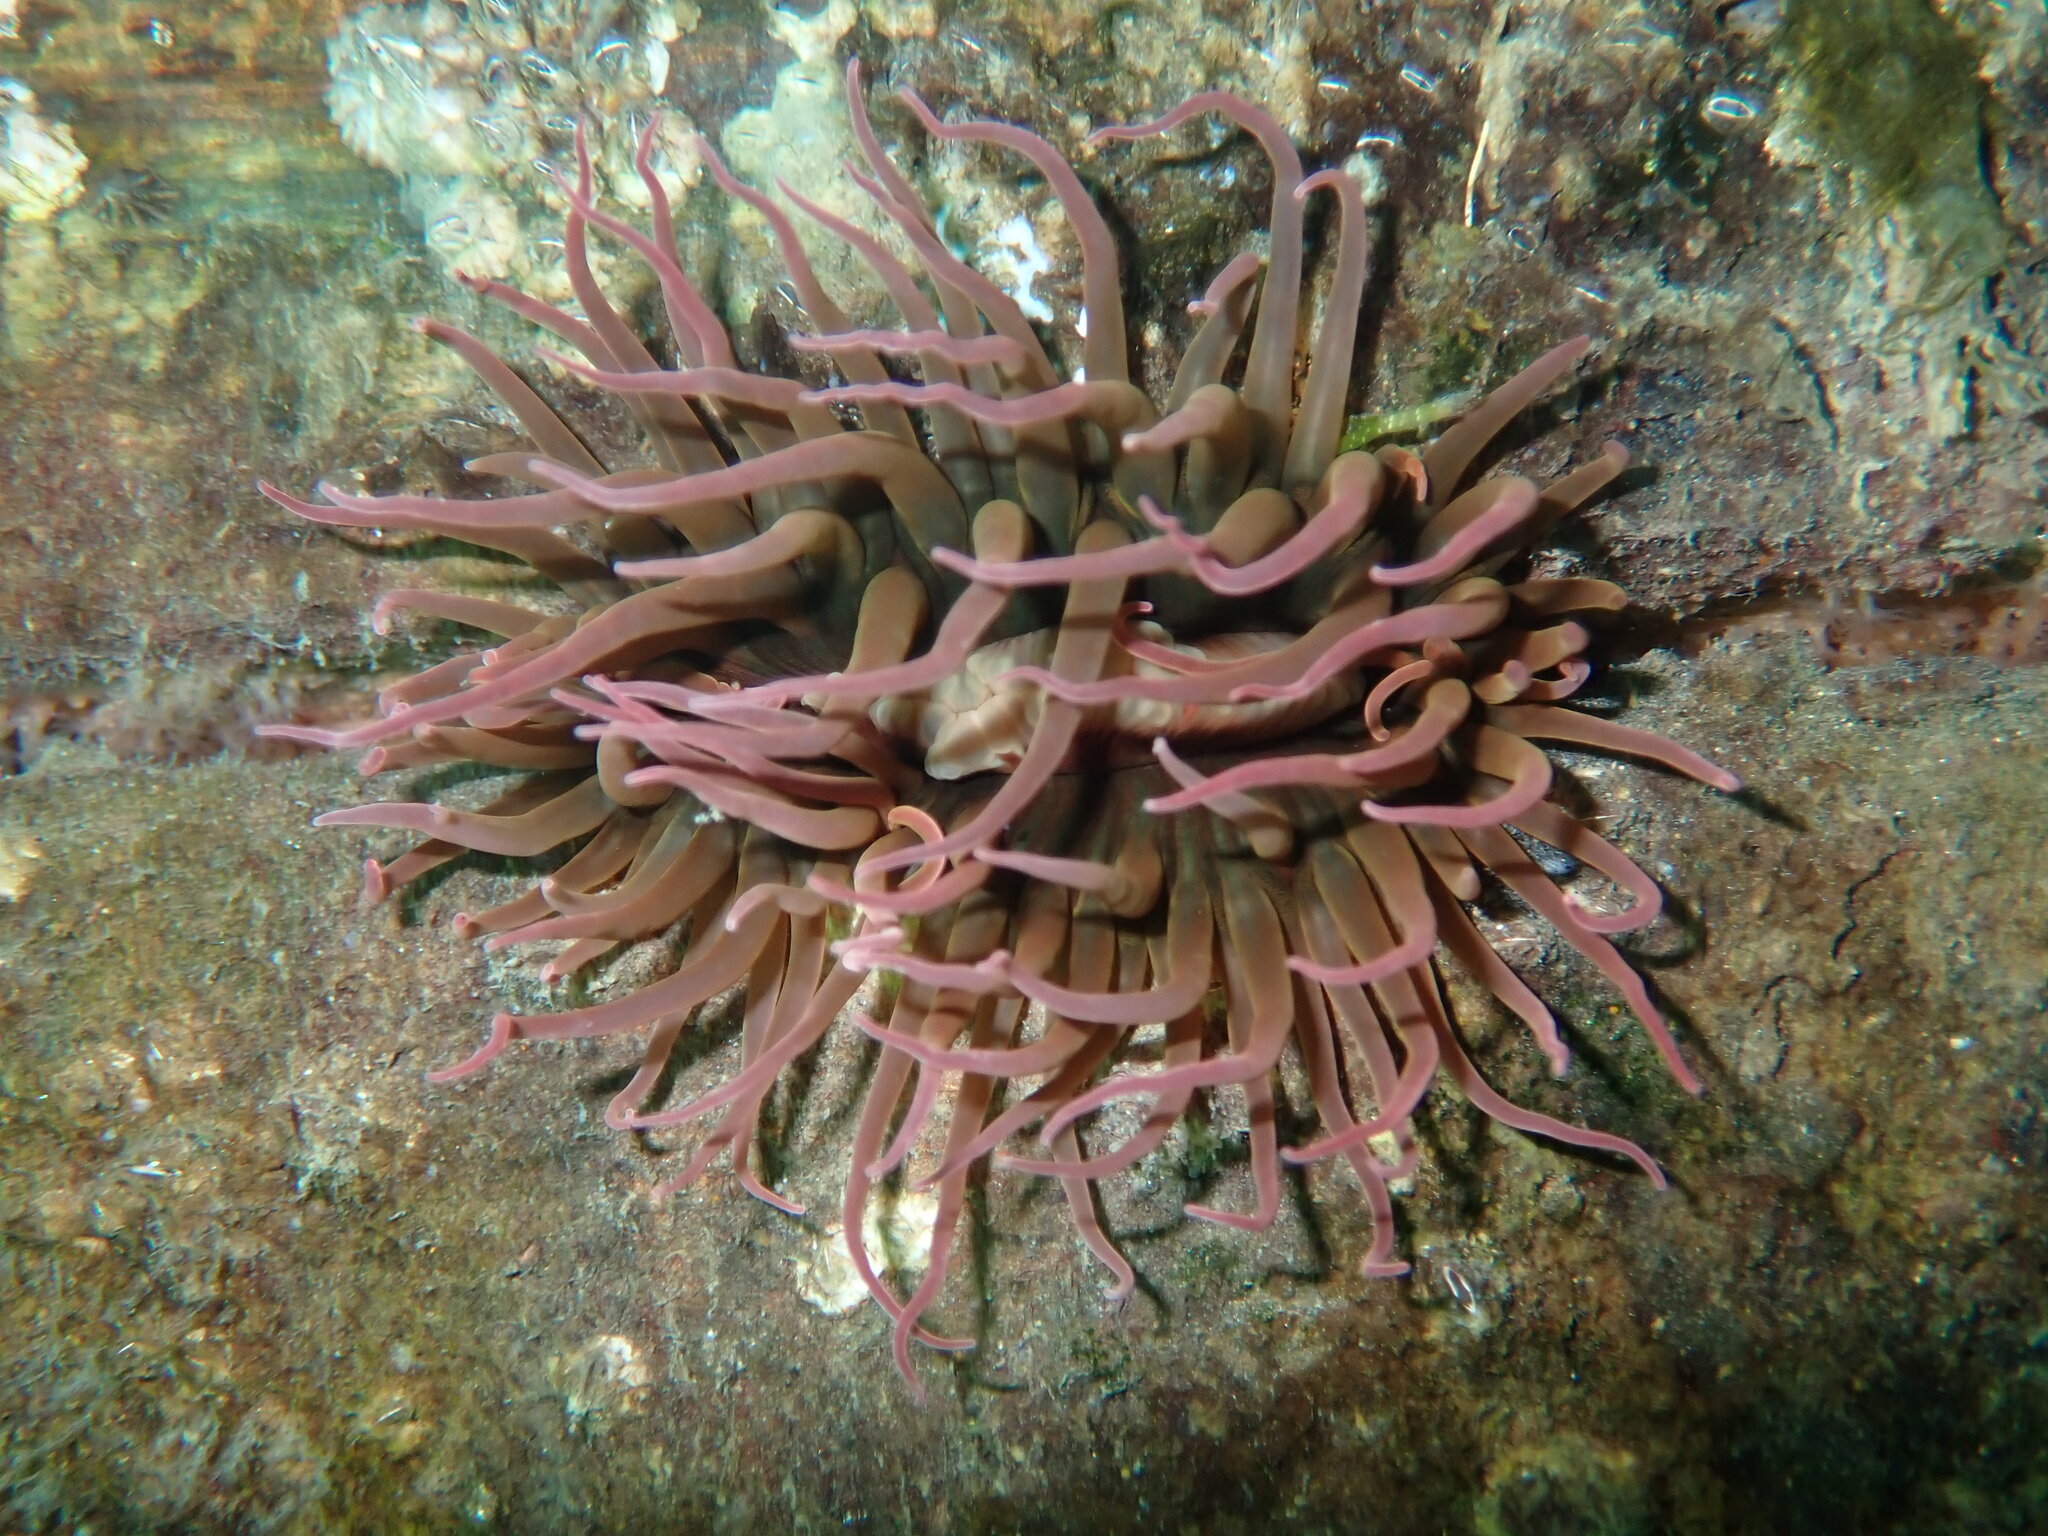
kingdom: Animalia
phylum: Cnidaria
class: Anthozoa
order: Actiniaria
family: Actiniidae
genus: Isanemonia
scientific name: Isanemonia australis
